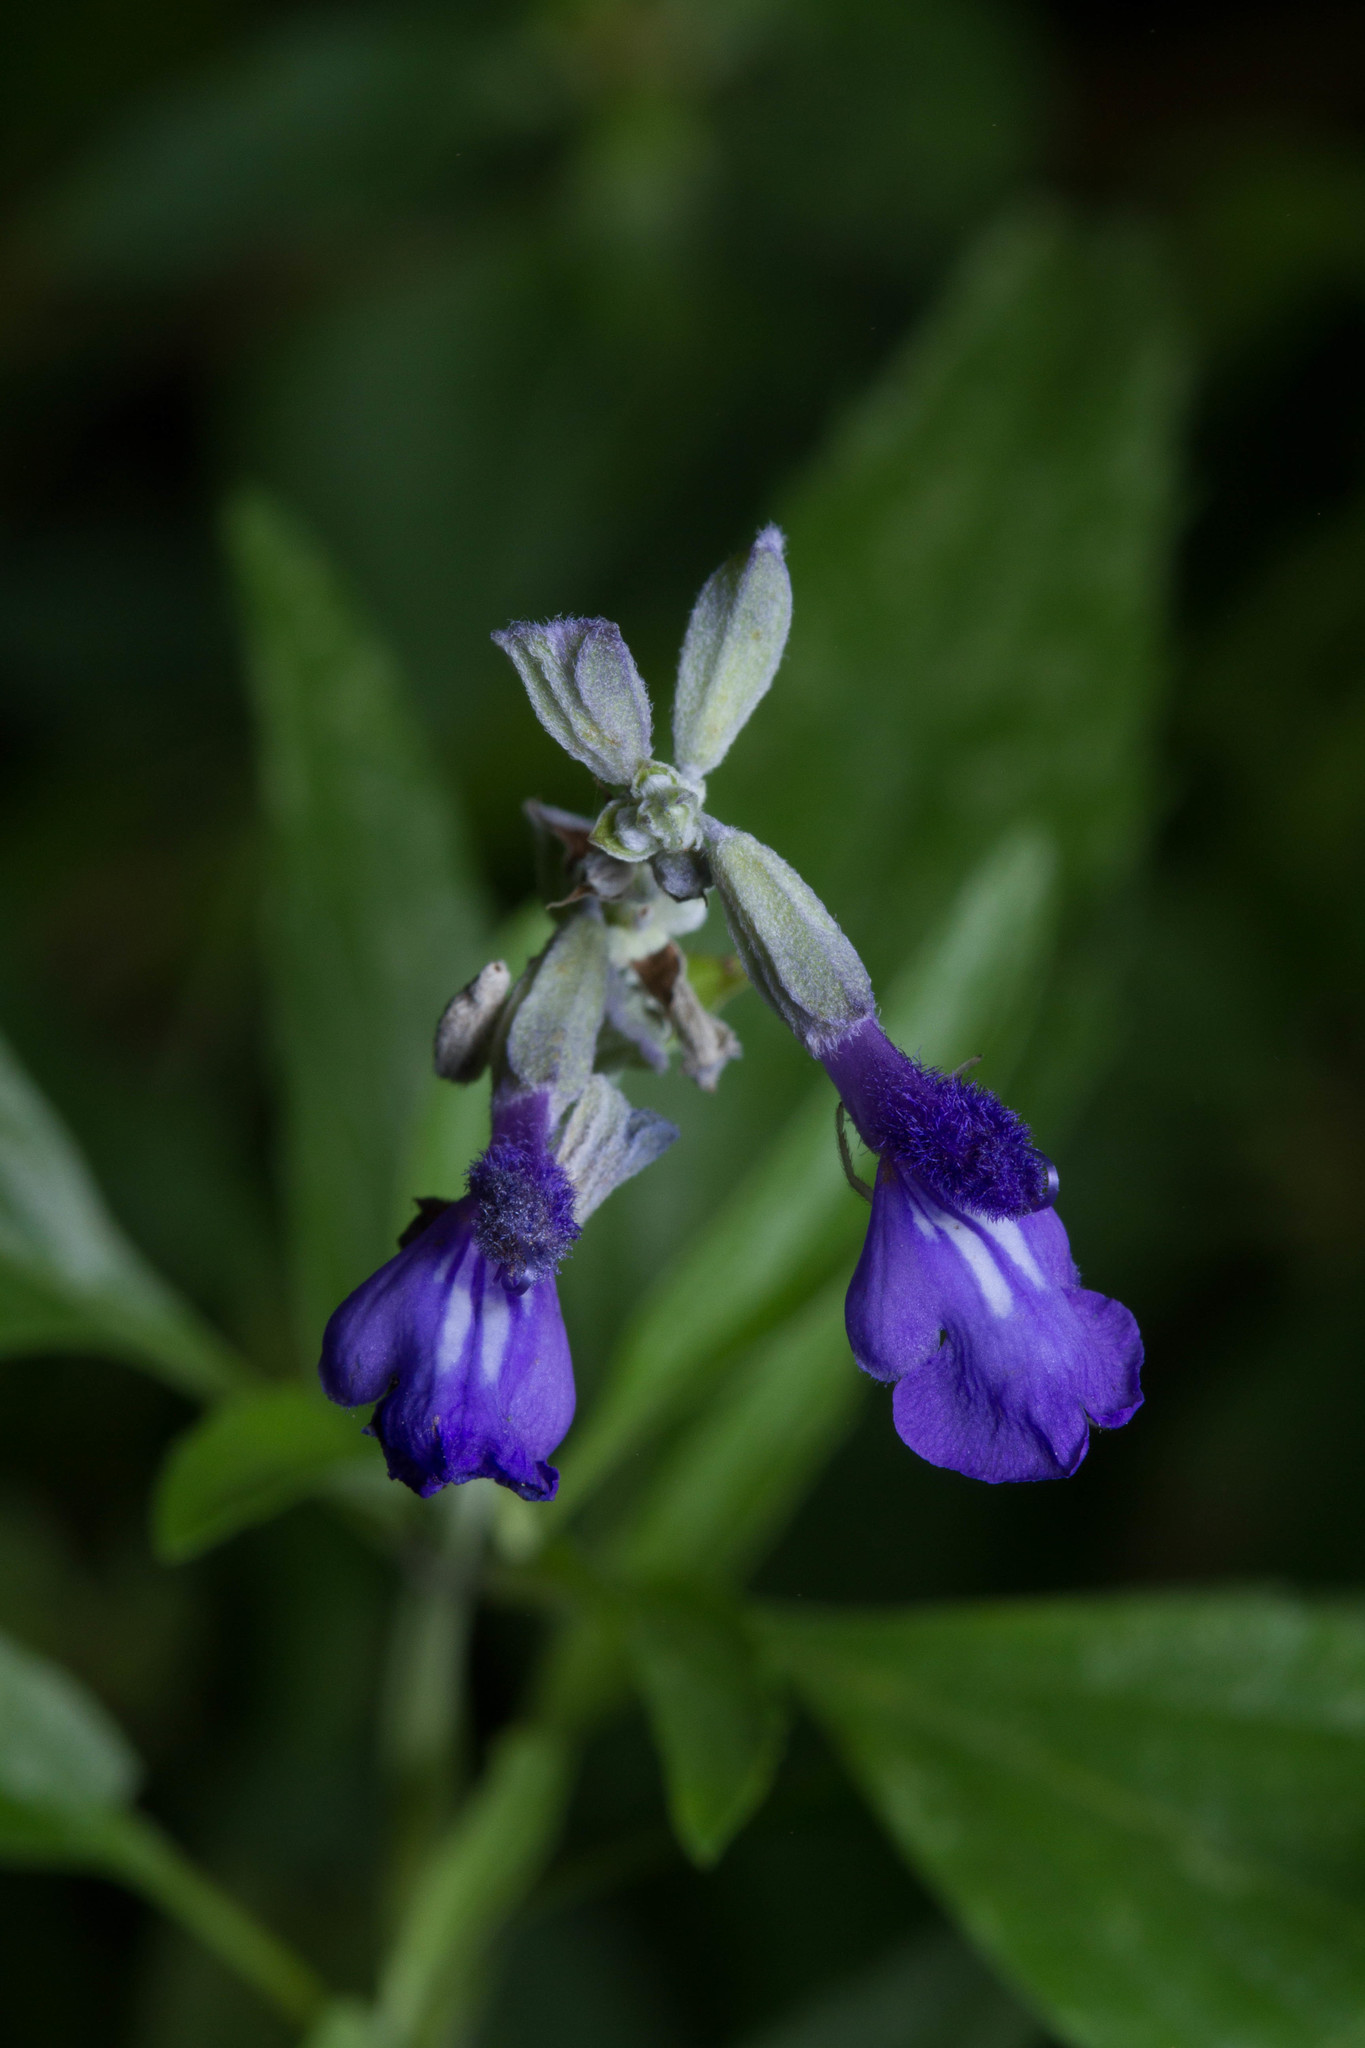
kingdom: Plantae
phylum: Tracheophyta
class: Magnoliopsida
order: Lamiales
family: Lamiaceae
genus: Salvia
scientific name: Salvia farinacea
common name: Mealy sage
